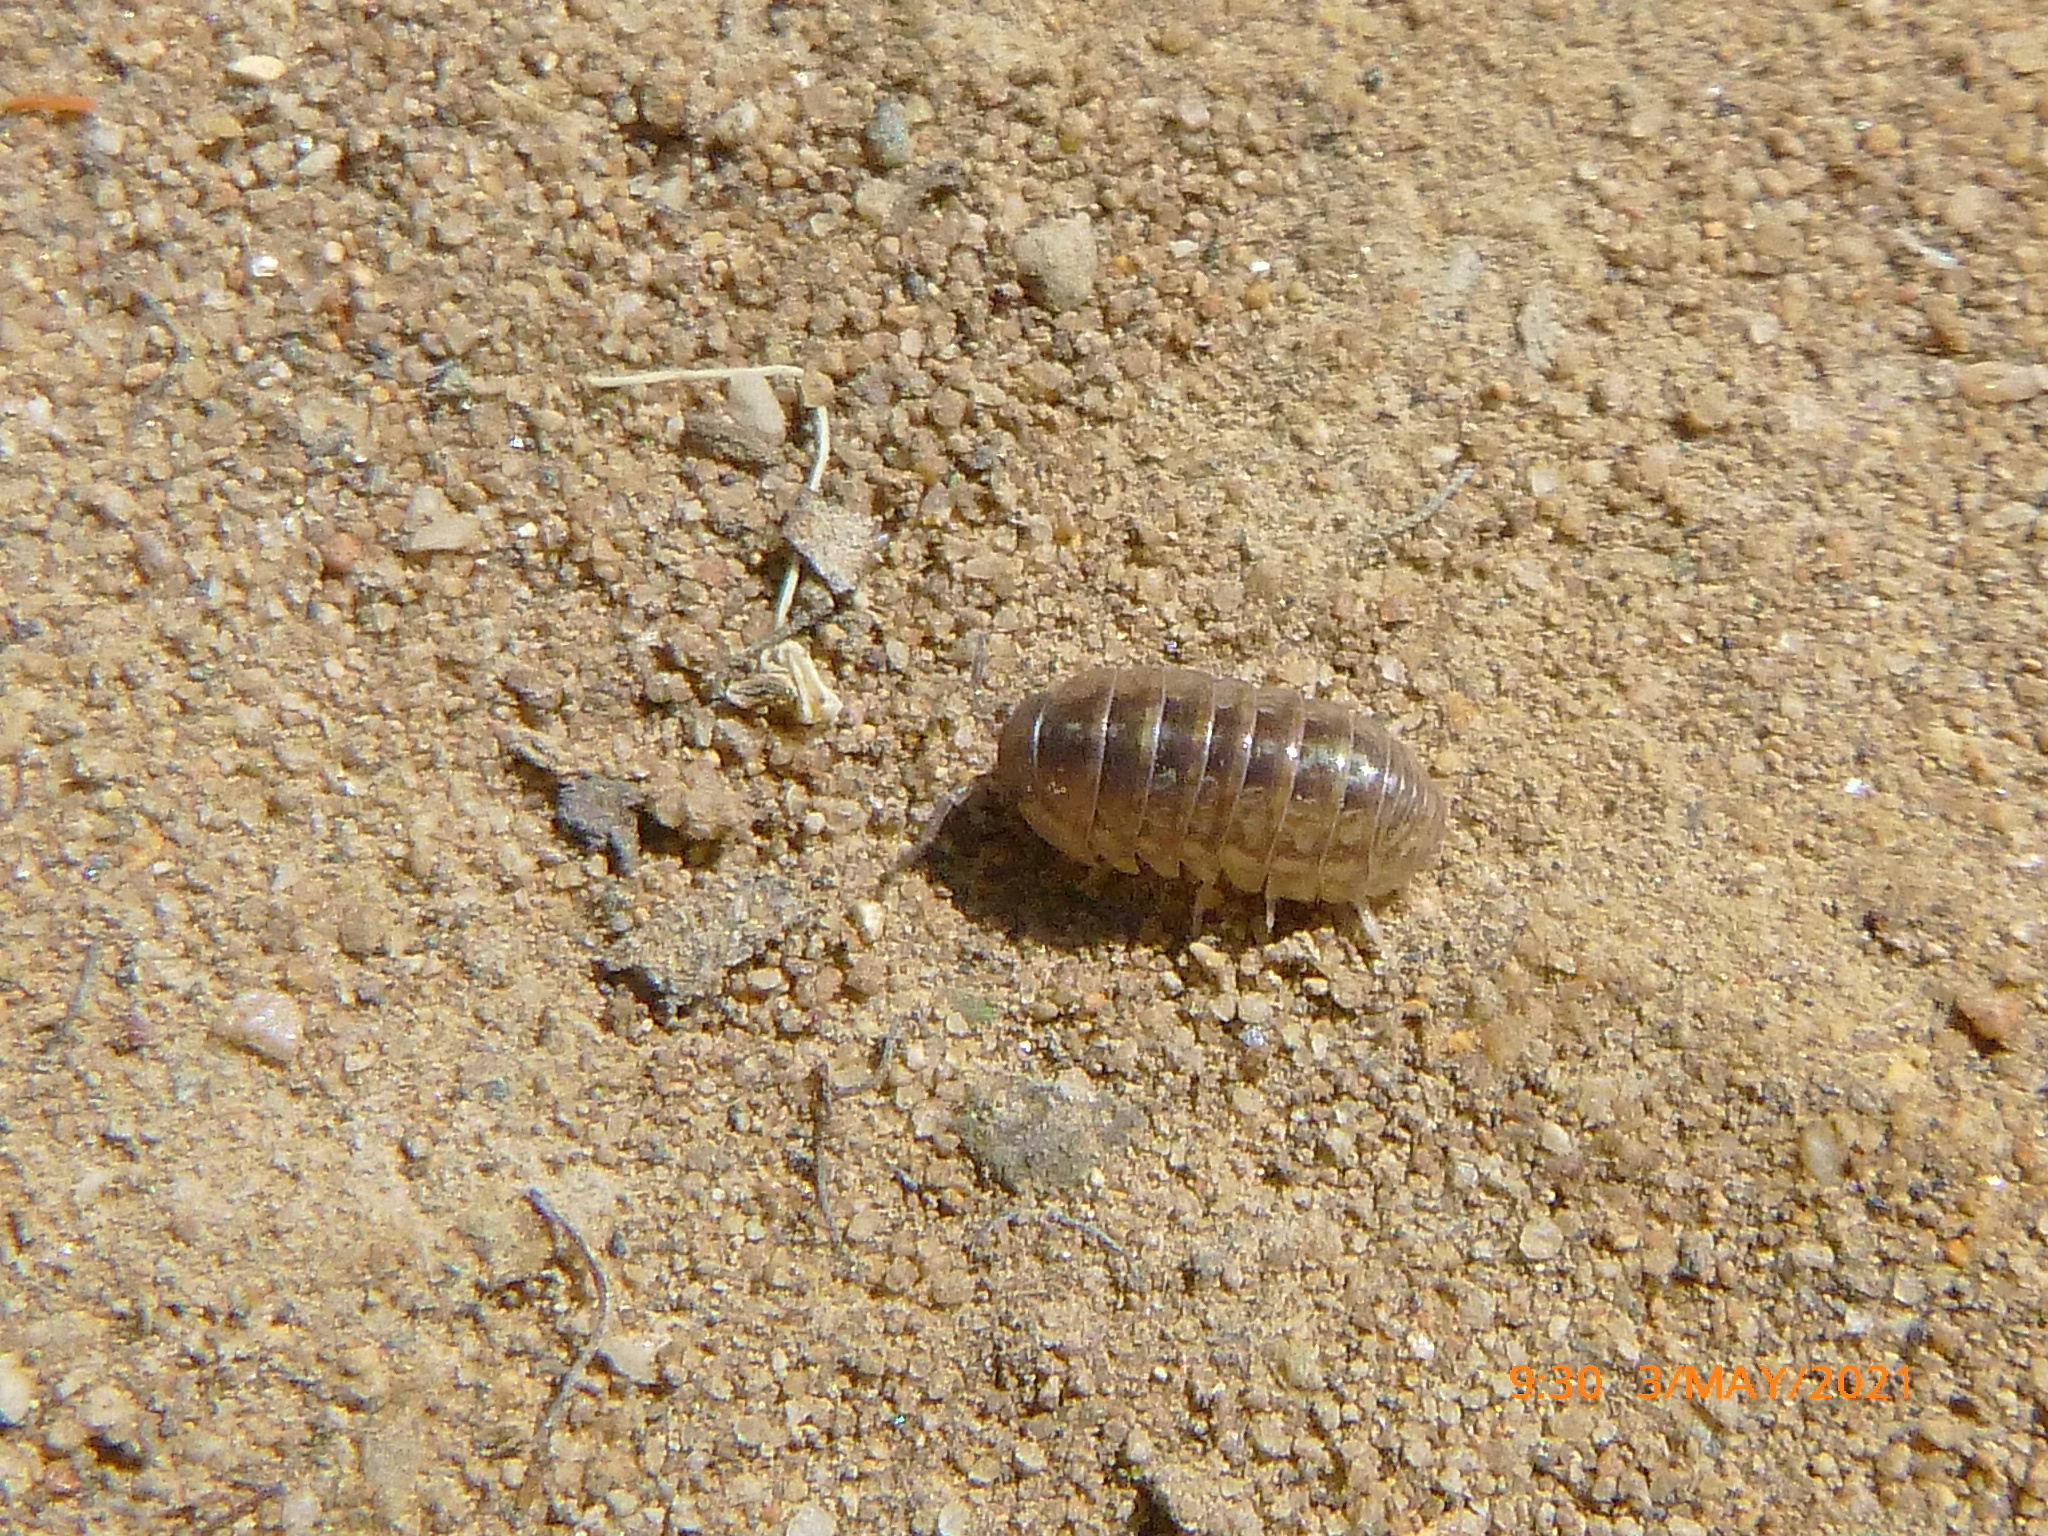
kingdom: Animalia
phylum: Arthropoda
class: Malacostraca
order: Isopoda
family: Armadillidiidae
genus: Armadillidium
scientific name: Armadillidium vulgare
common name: Common pill woodlouse
